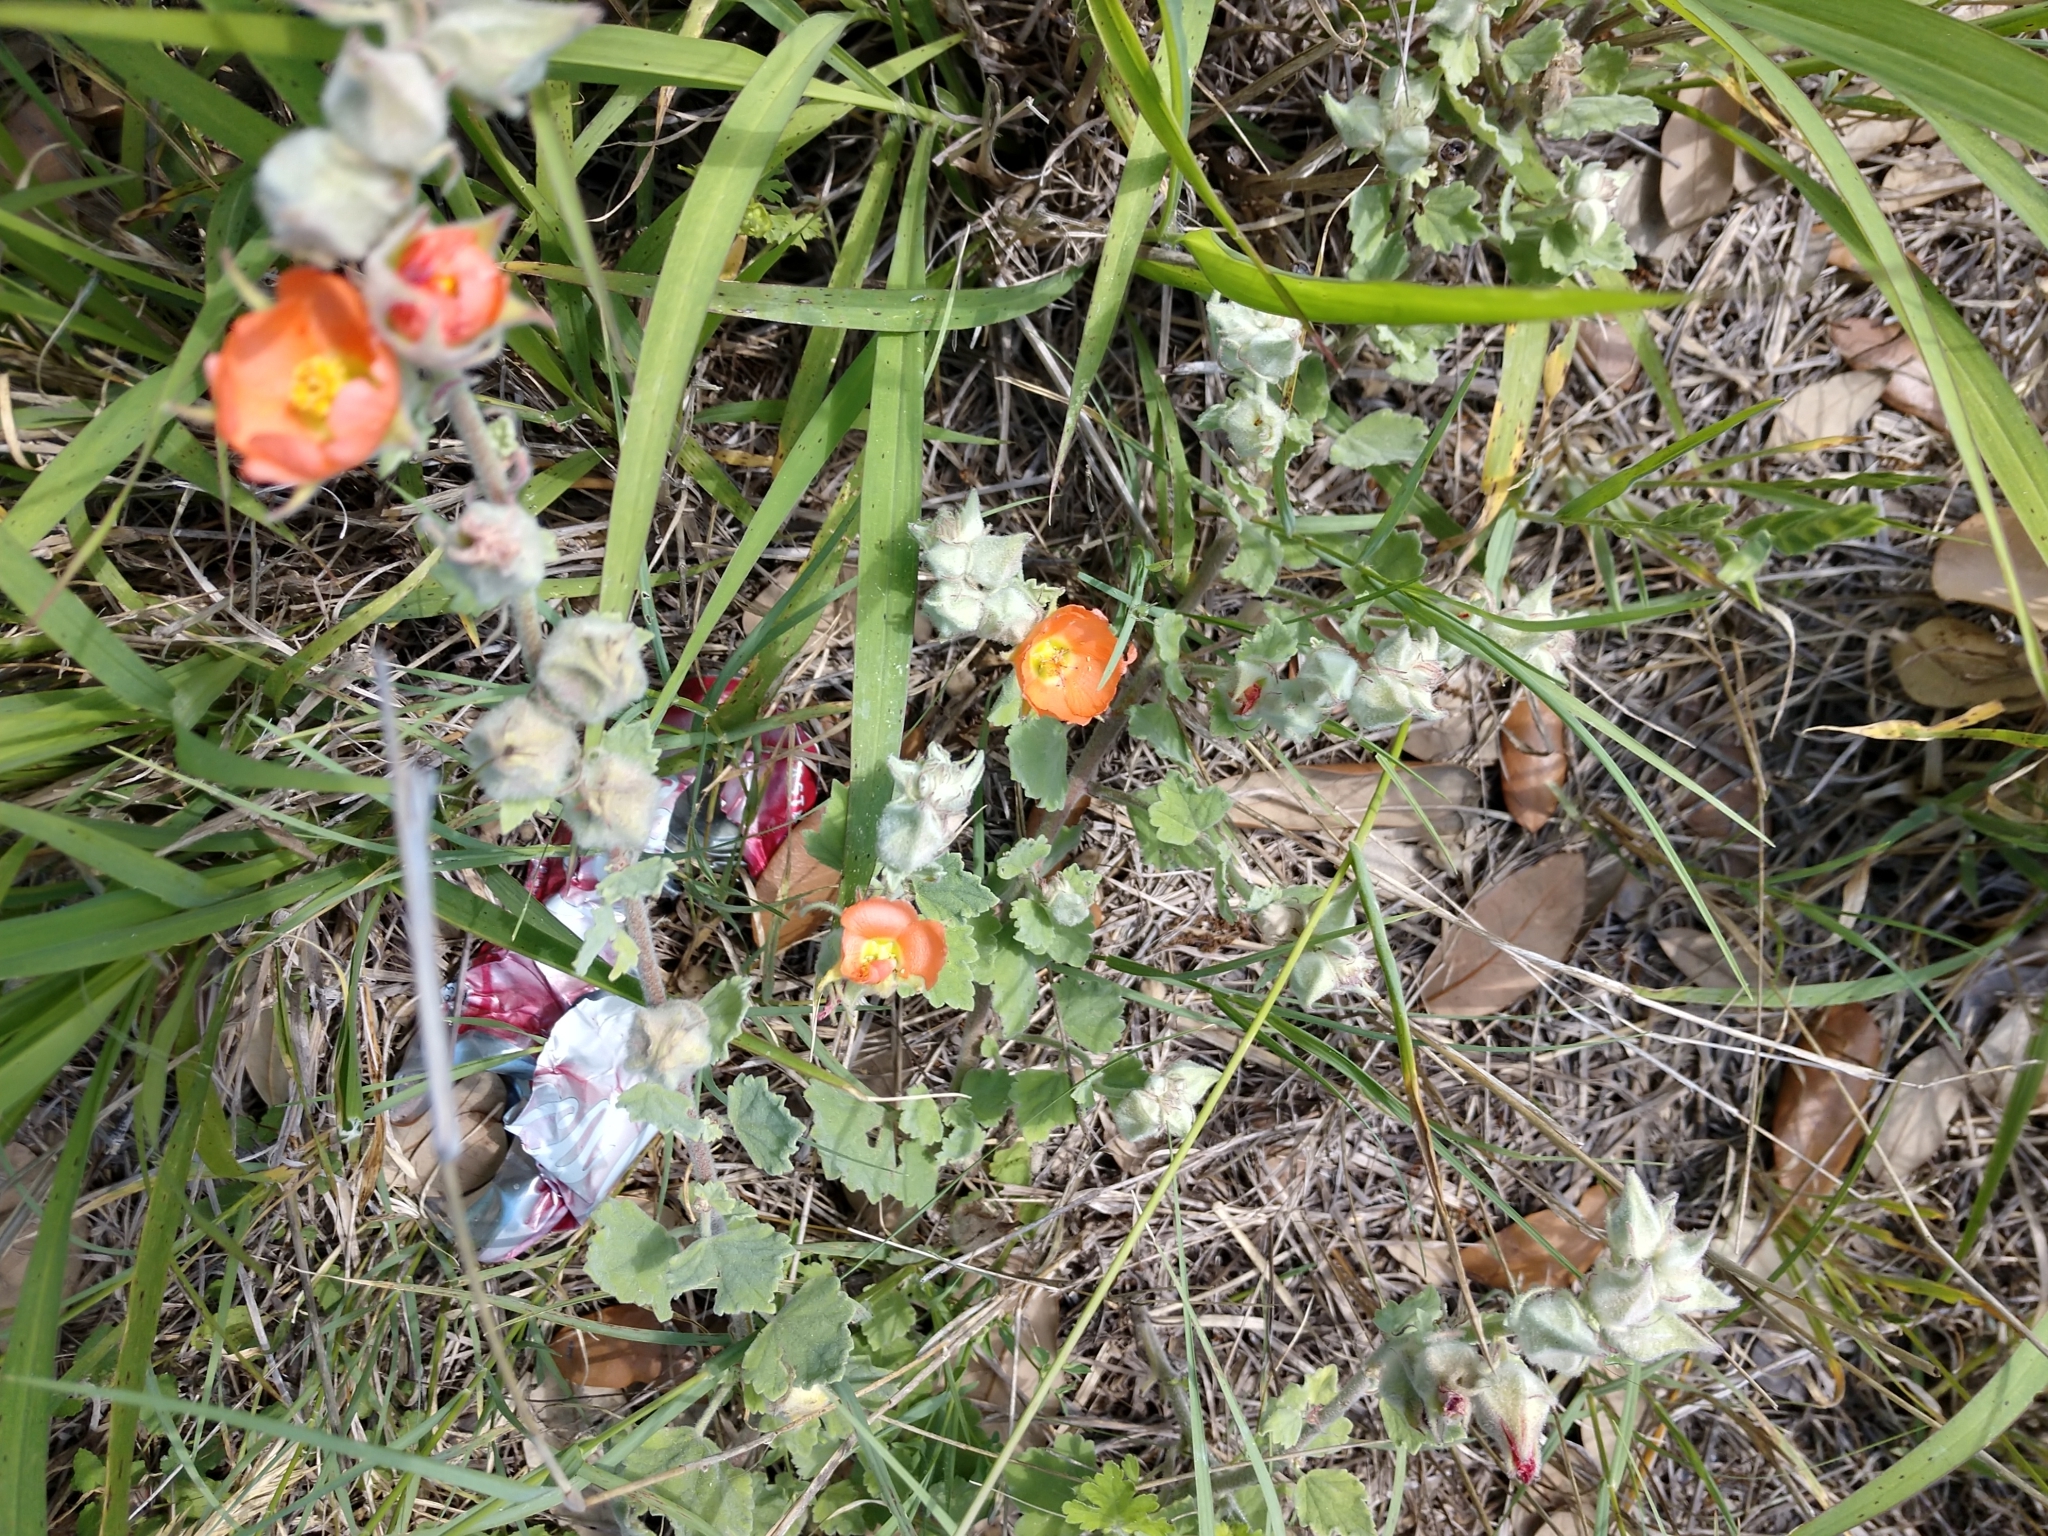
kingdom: Plantae
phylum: Tracheophyta
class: Magnoliopsida
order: Malvales
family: Malvaceae
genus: Sphaeralcea
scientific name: Sphaeralcea lindheimeri
